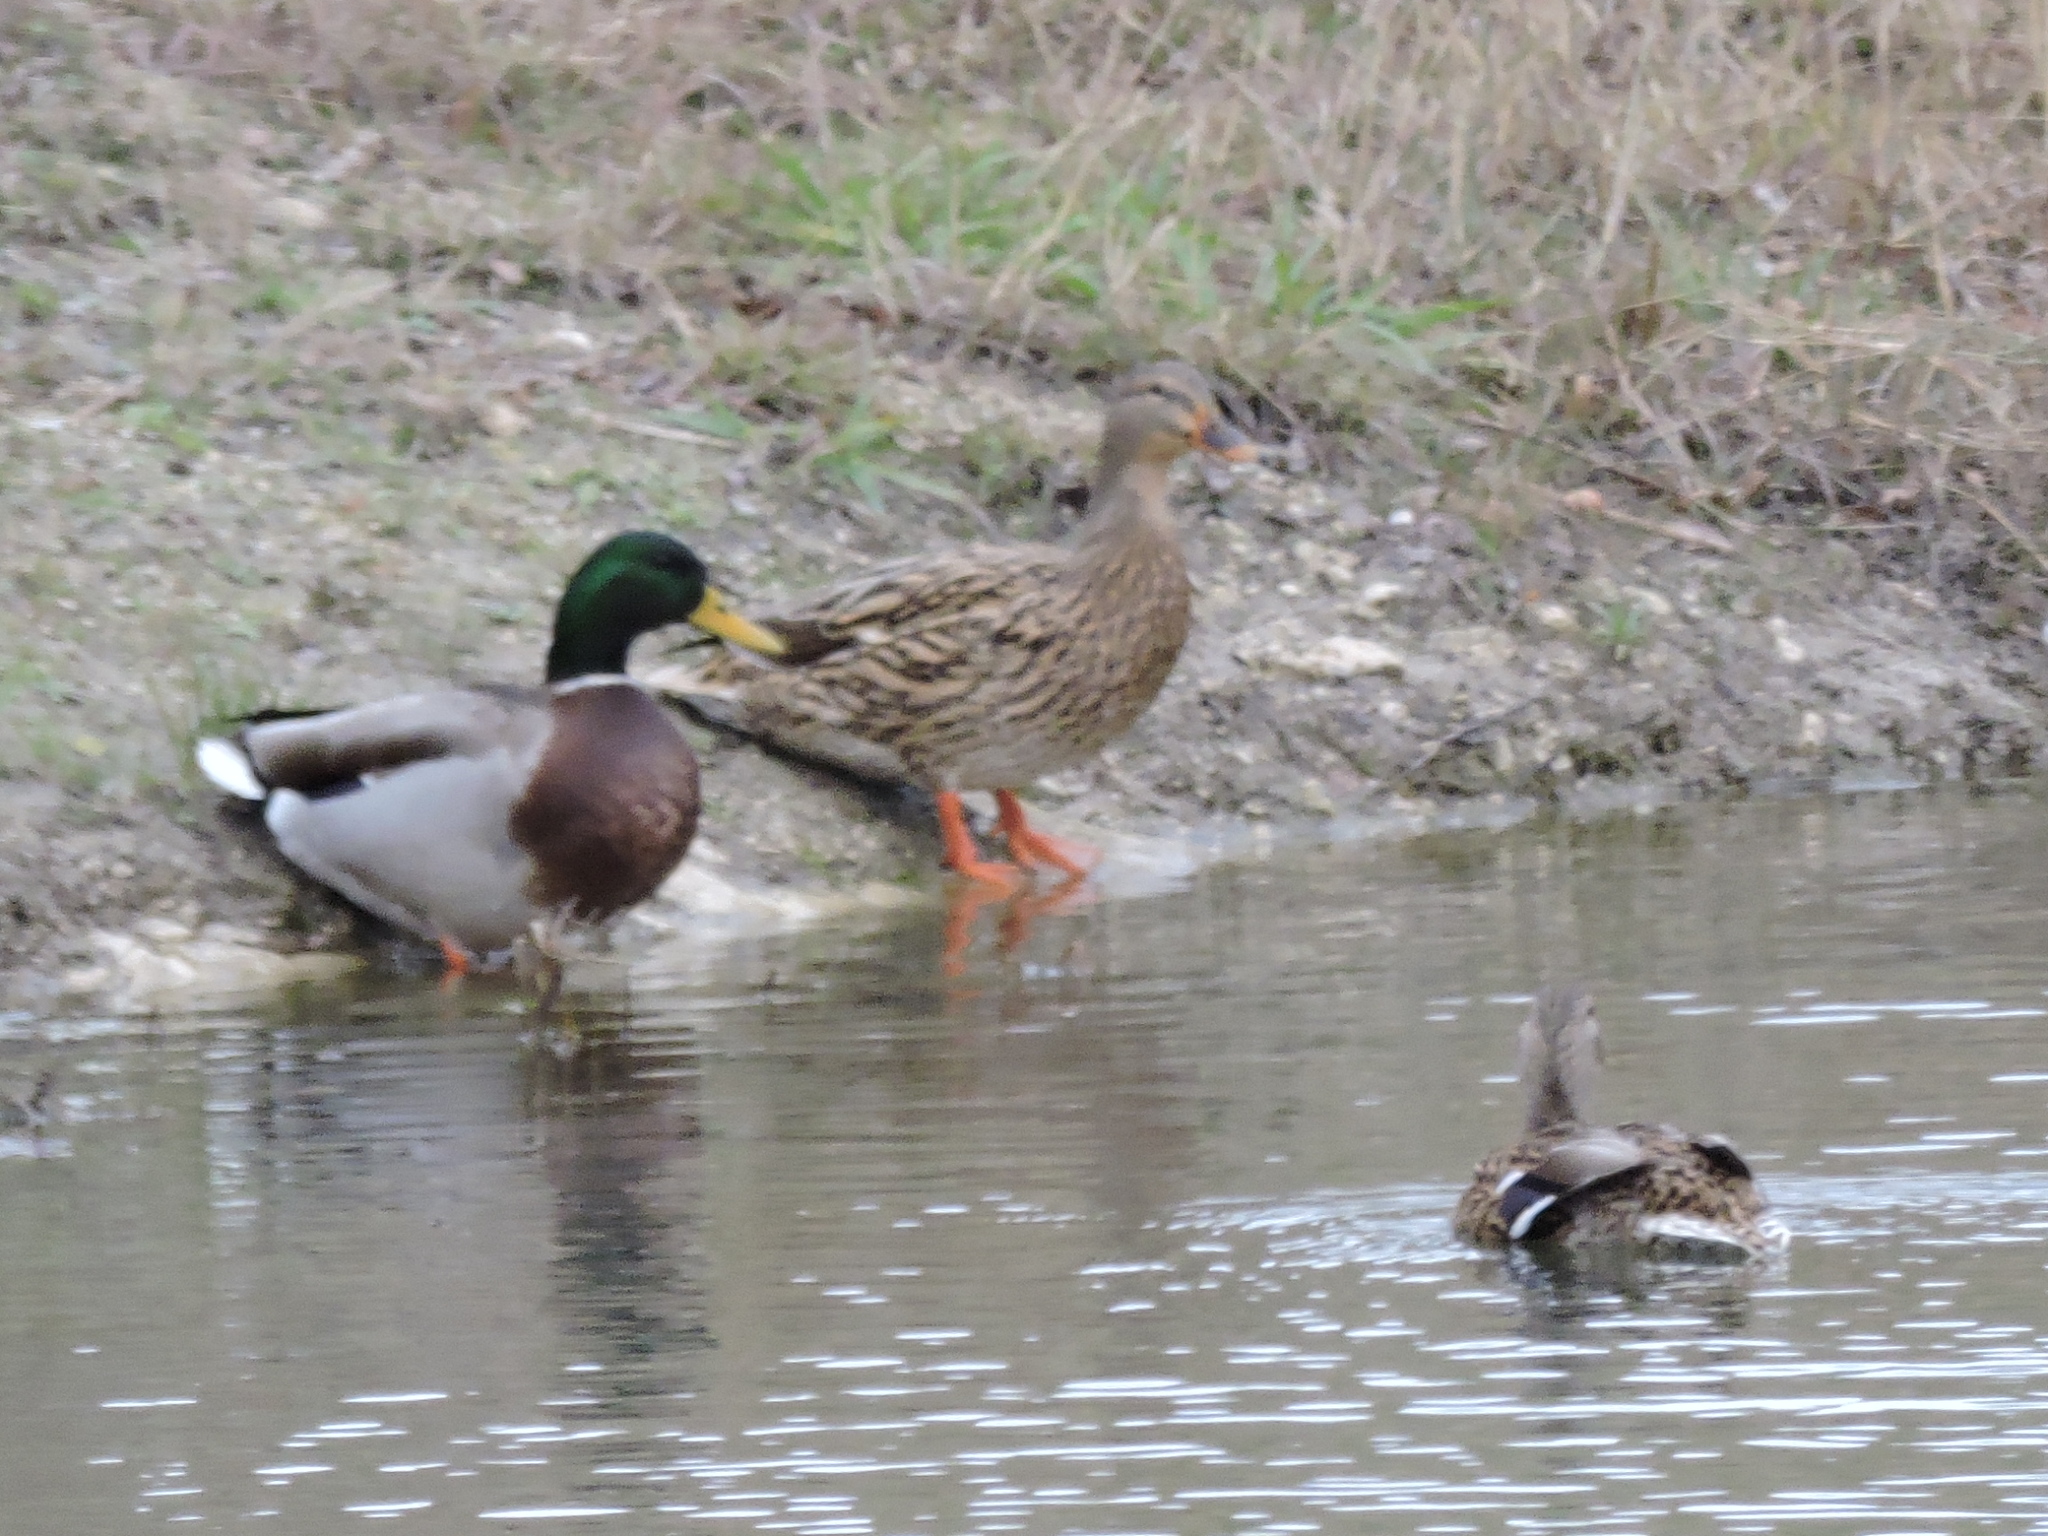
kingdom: Animalia
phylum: Chordata
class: Aves
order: Anseriformes
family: Anatidae
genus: Anas
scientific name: Anas platyrhynchos
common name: Mallard
